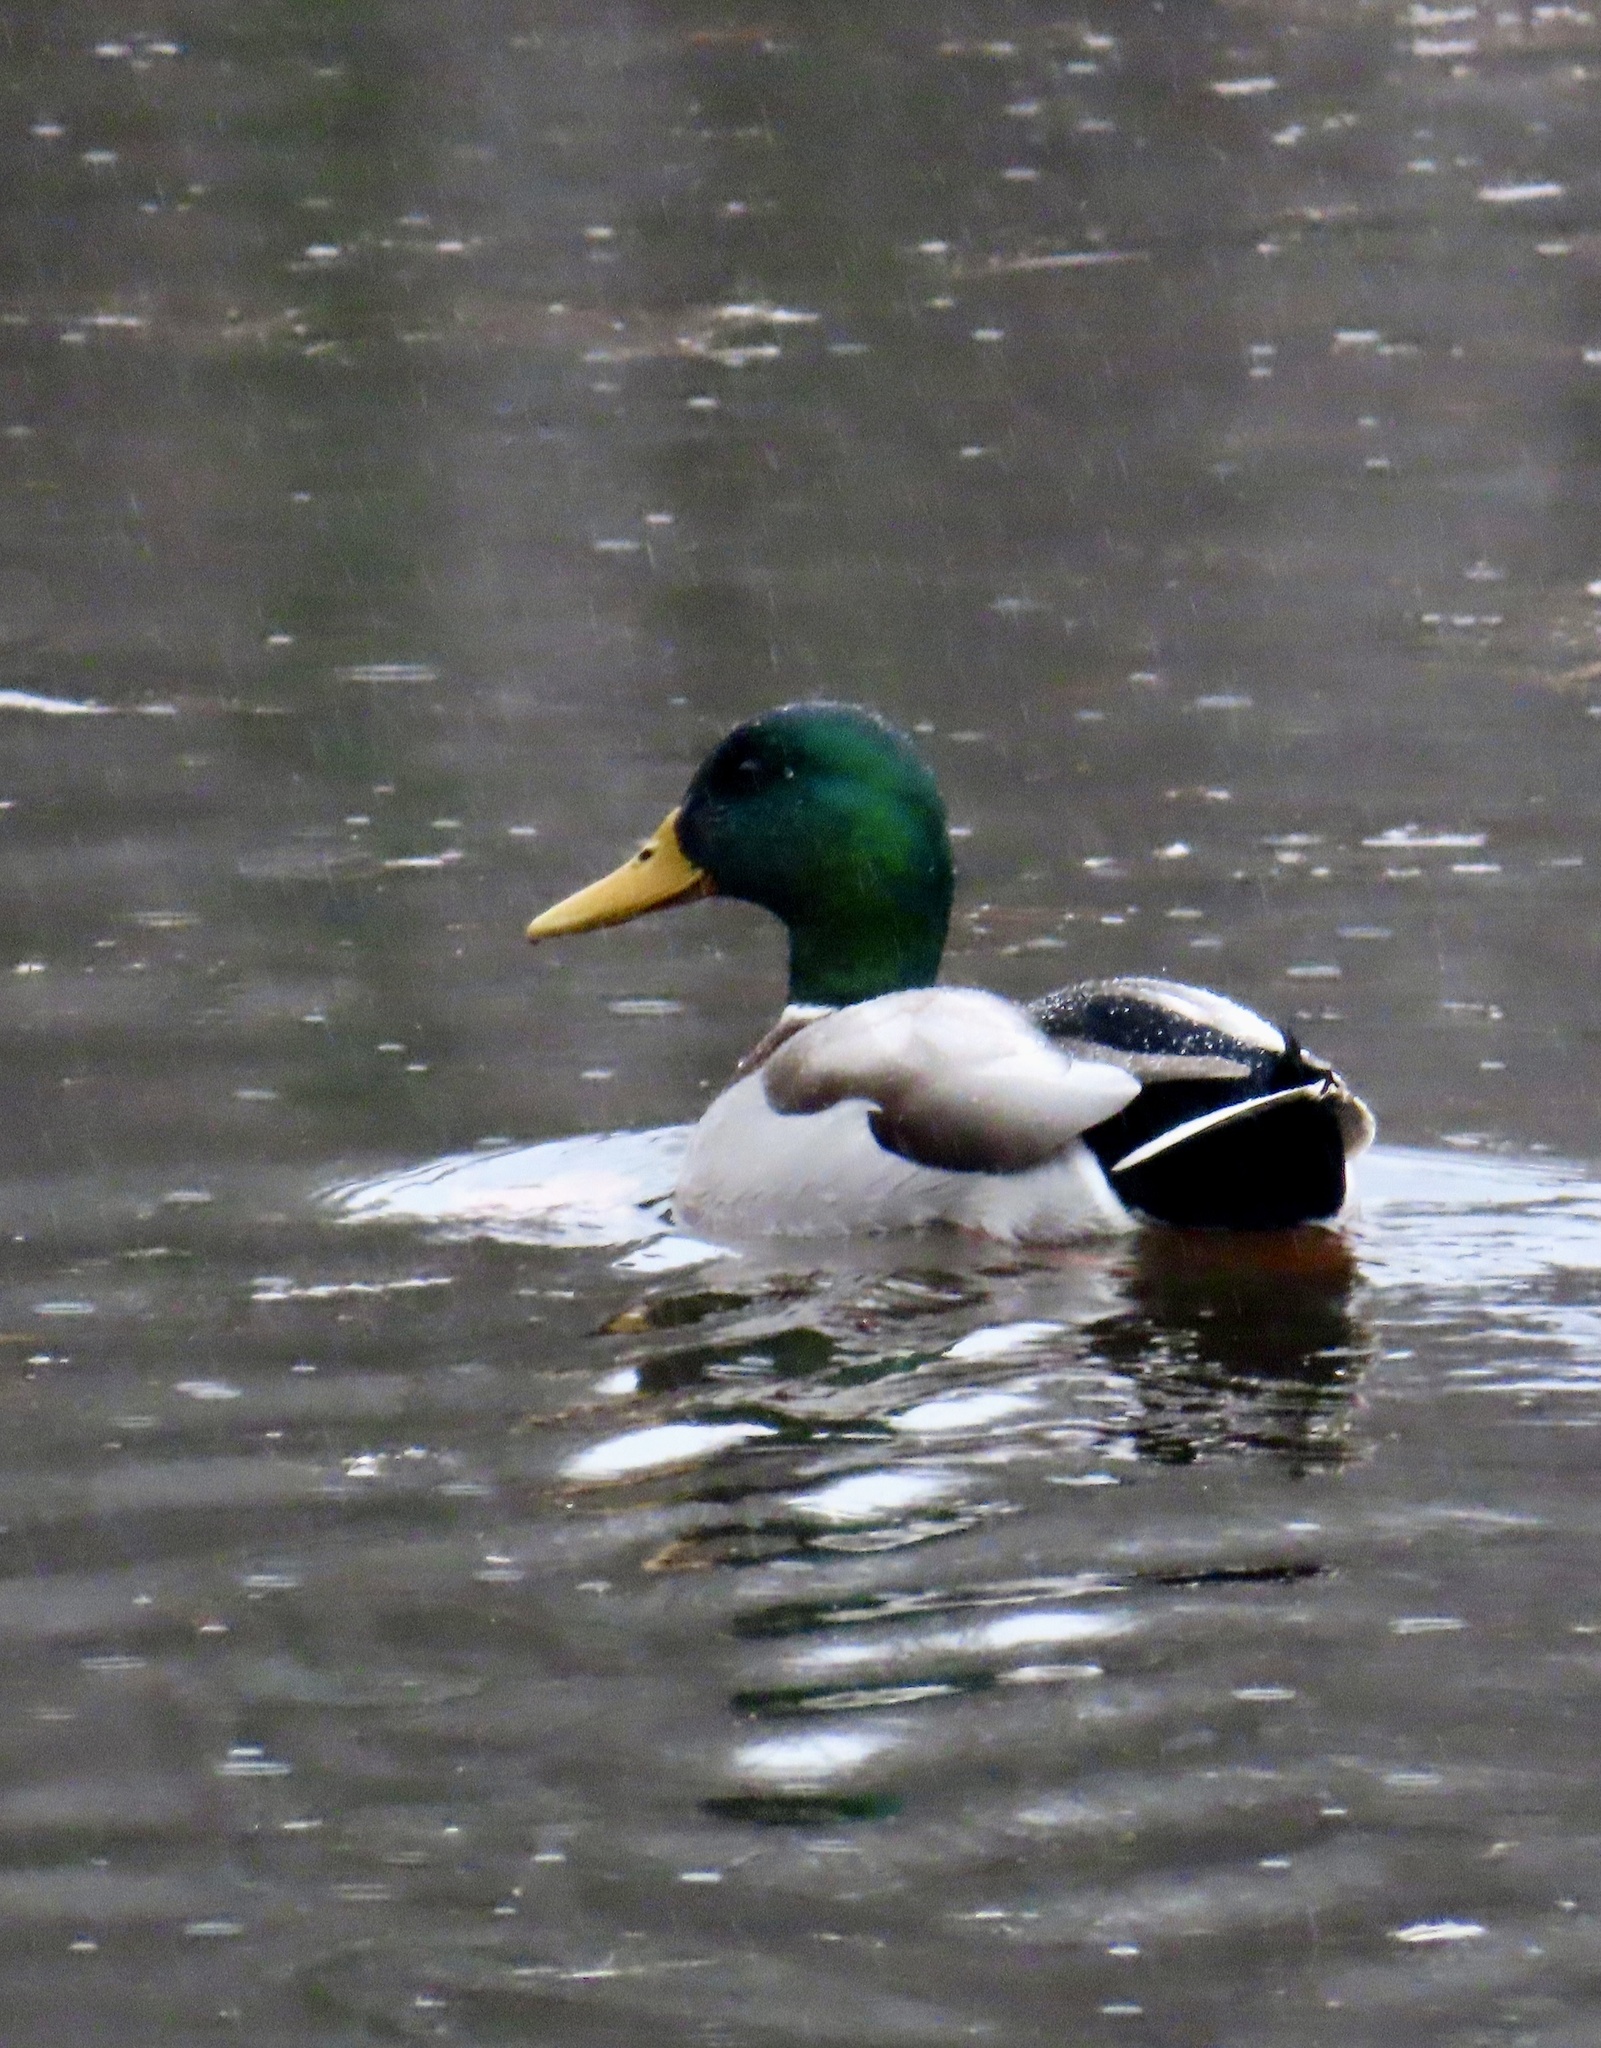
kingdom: Animalia
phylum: Chordata
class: Aves
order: Anseriformes
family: Anatidae
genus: Anas
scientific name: Anas platyrhynchos
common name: Mallard
